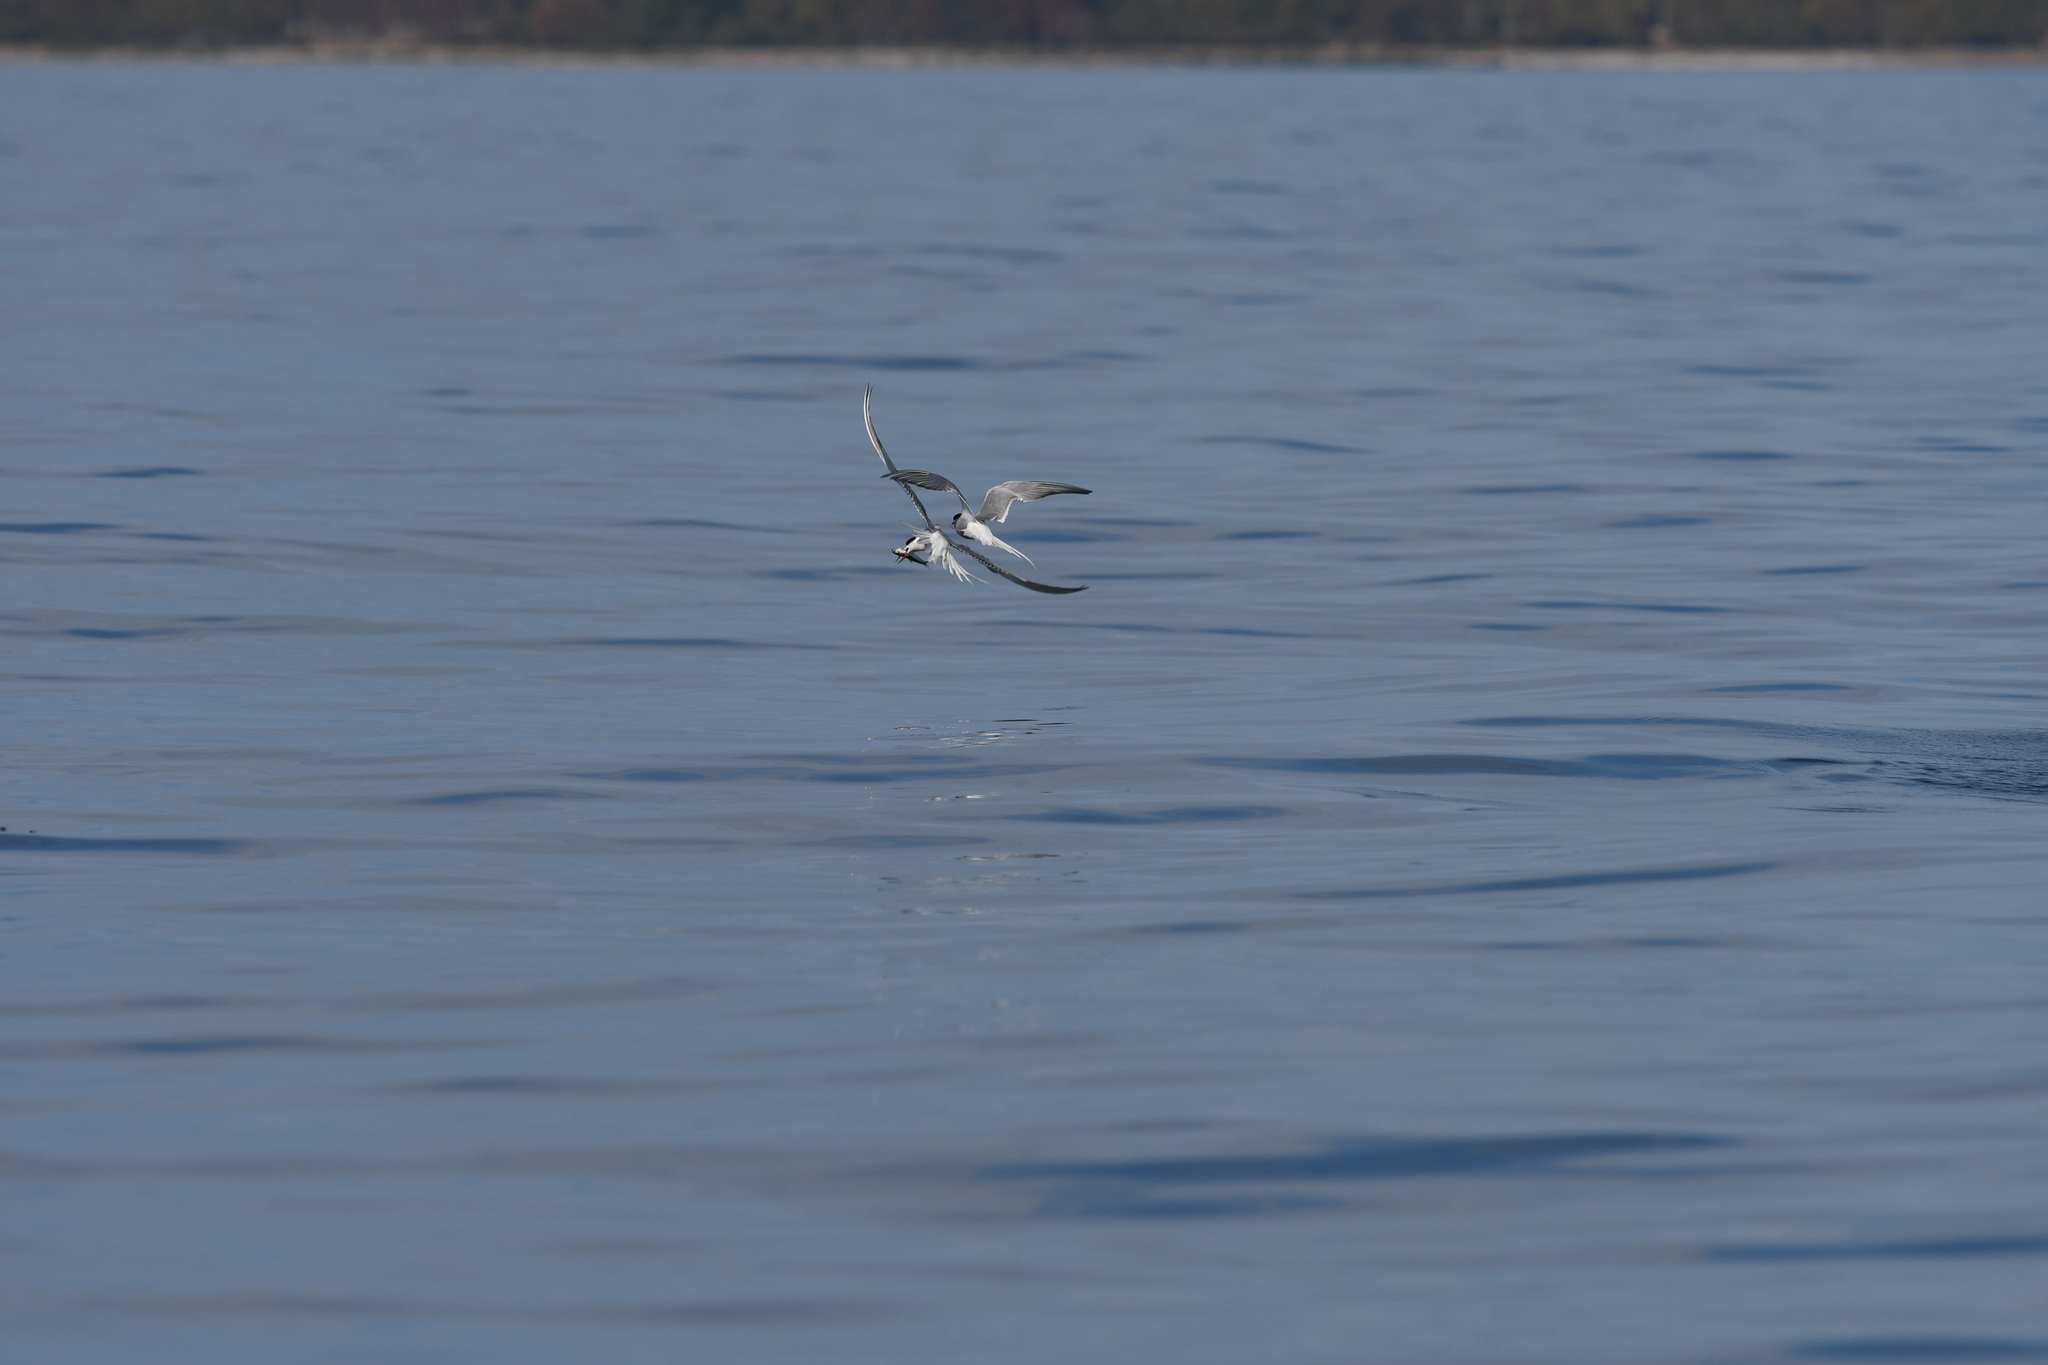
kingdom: Animalia
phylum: Chordata
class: Aves
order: Charadriiformes
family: Laridae
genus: Thalasseus
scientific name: Thalasseus sandvicensis
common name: Sandwich tern
